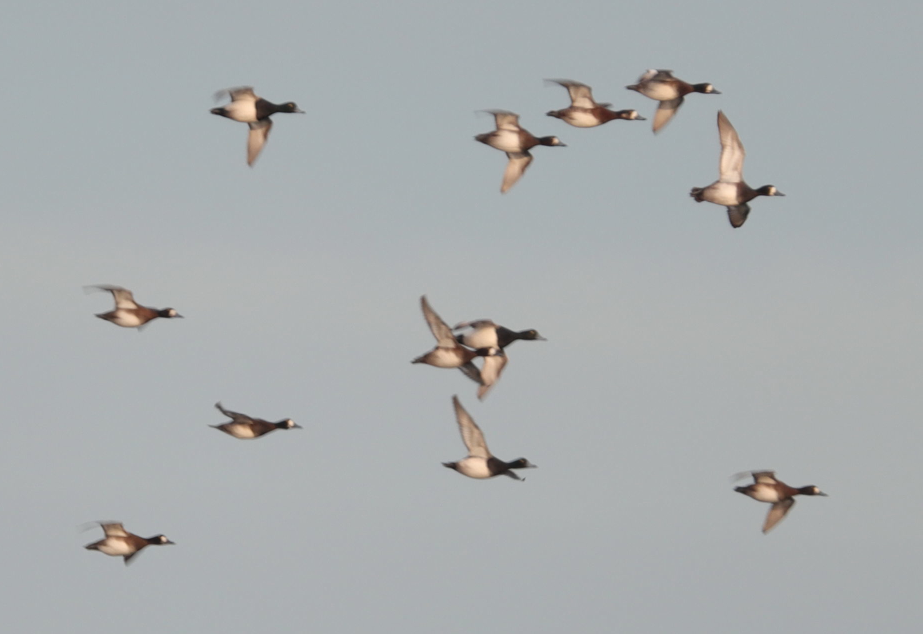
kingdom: Animalia
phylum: Chordata
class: Aves
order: Anseriformes
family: Anatidae
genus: Aythya
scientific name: Aythya marila
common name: Greater scaup
